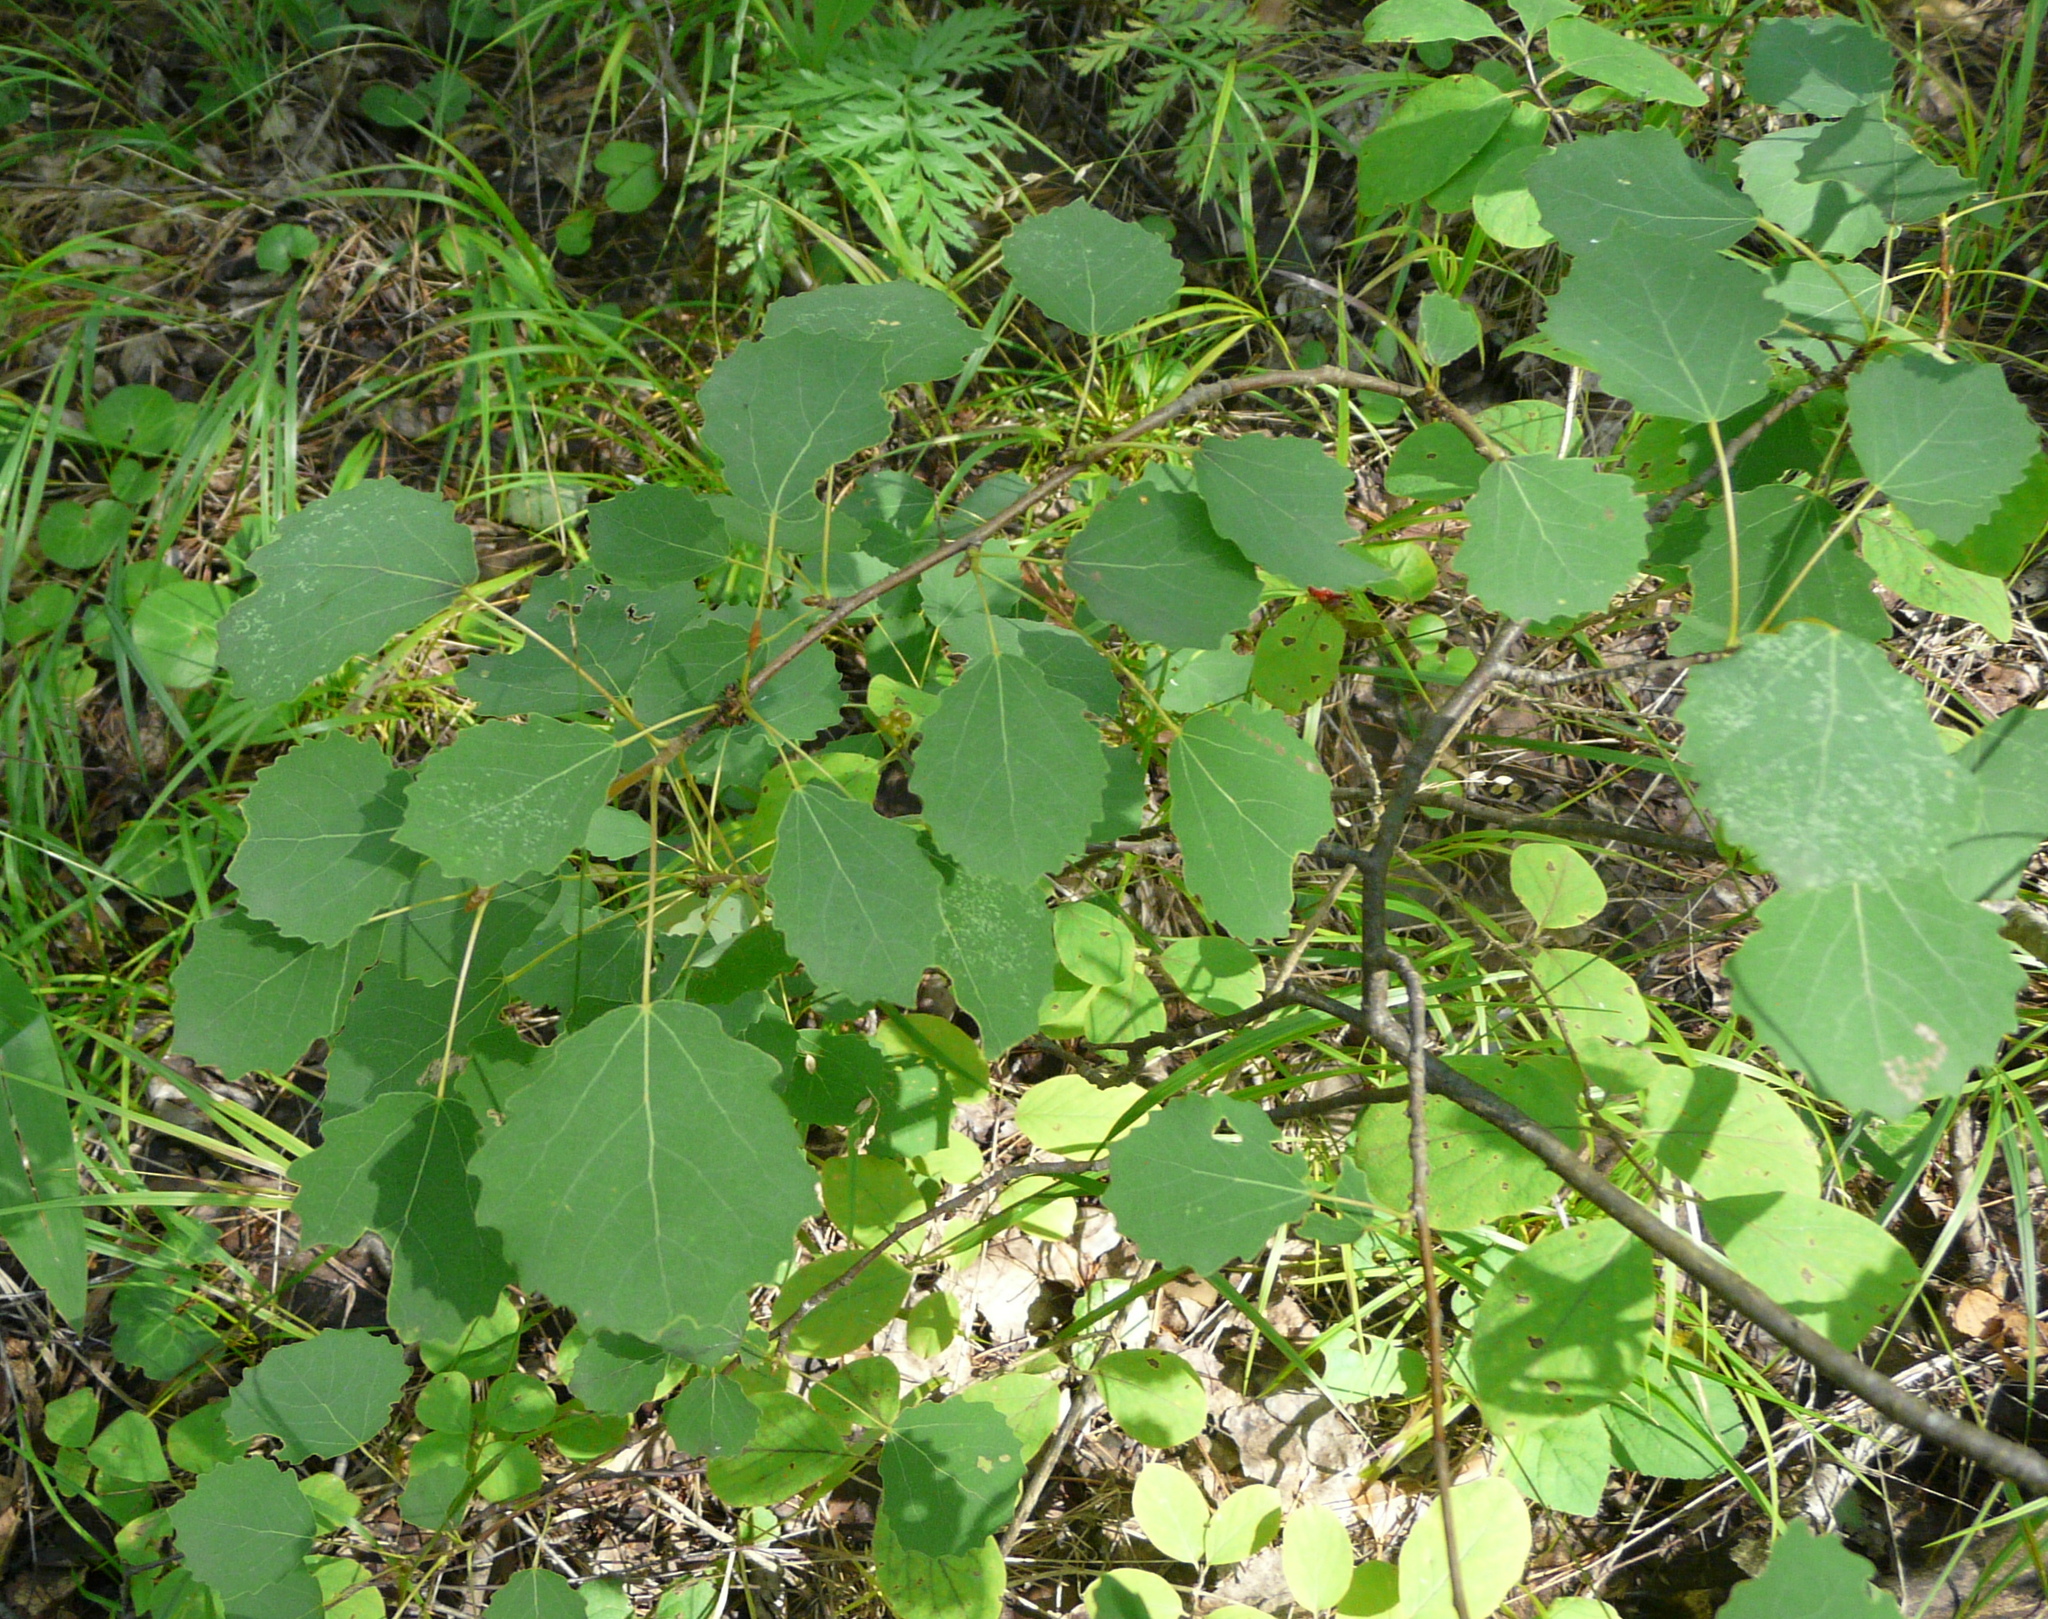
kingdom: Plantae
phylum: Tracheophyta
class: Magnoliopsida
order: Malpighiales
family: Salicaceae
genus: Populus
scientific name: Populus tremula
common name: European aspen
